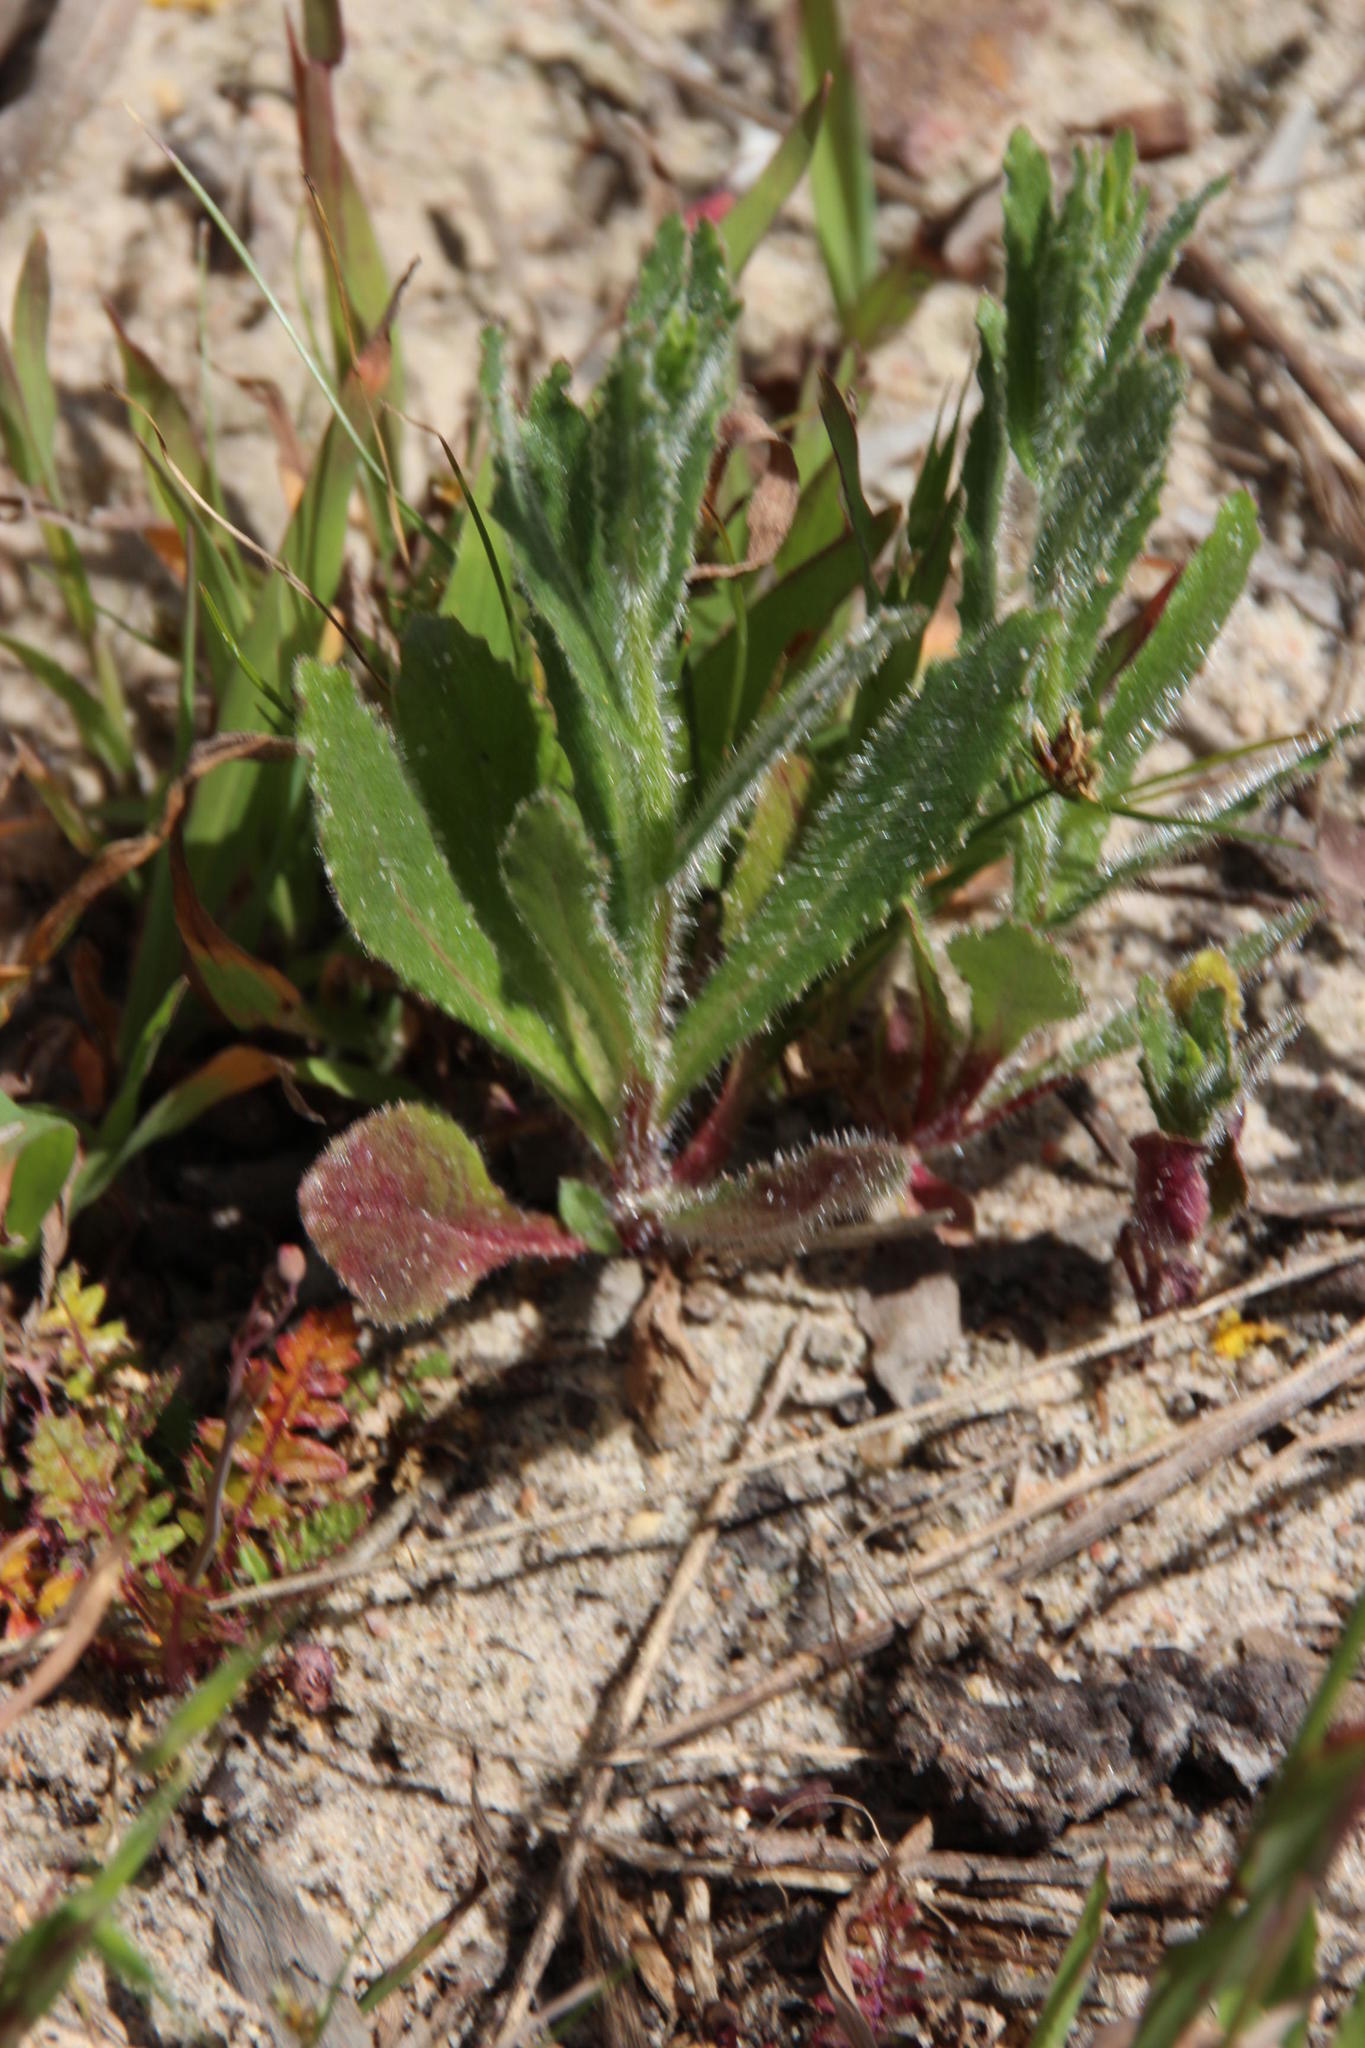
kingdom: Plantae
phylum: Tracheophyta
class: Magnoliopsida
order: Asterales
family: Campanulaceae
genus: Wahlenbergia
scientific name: Wahlenbergia capensis
